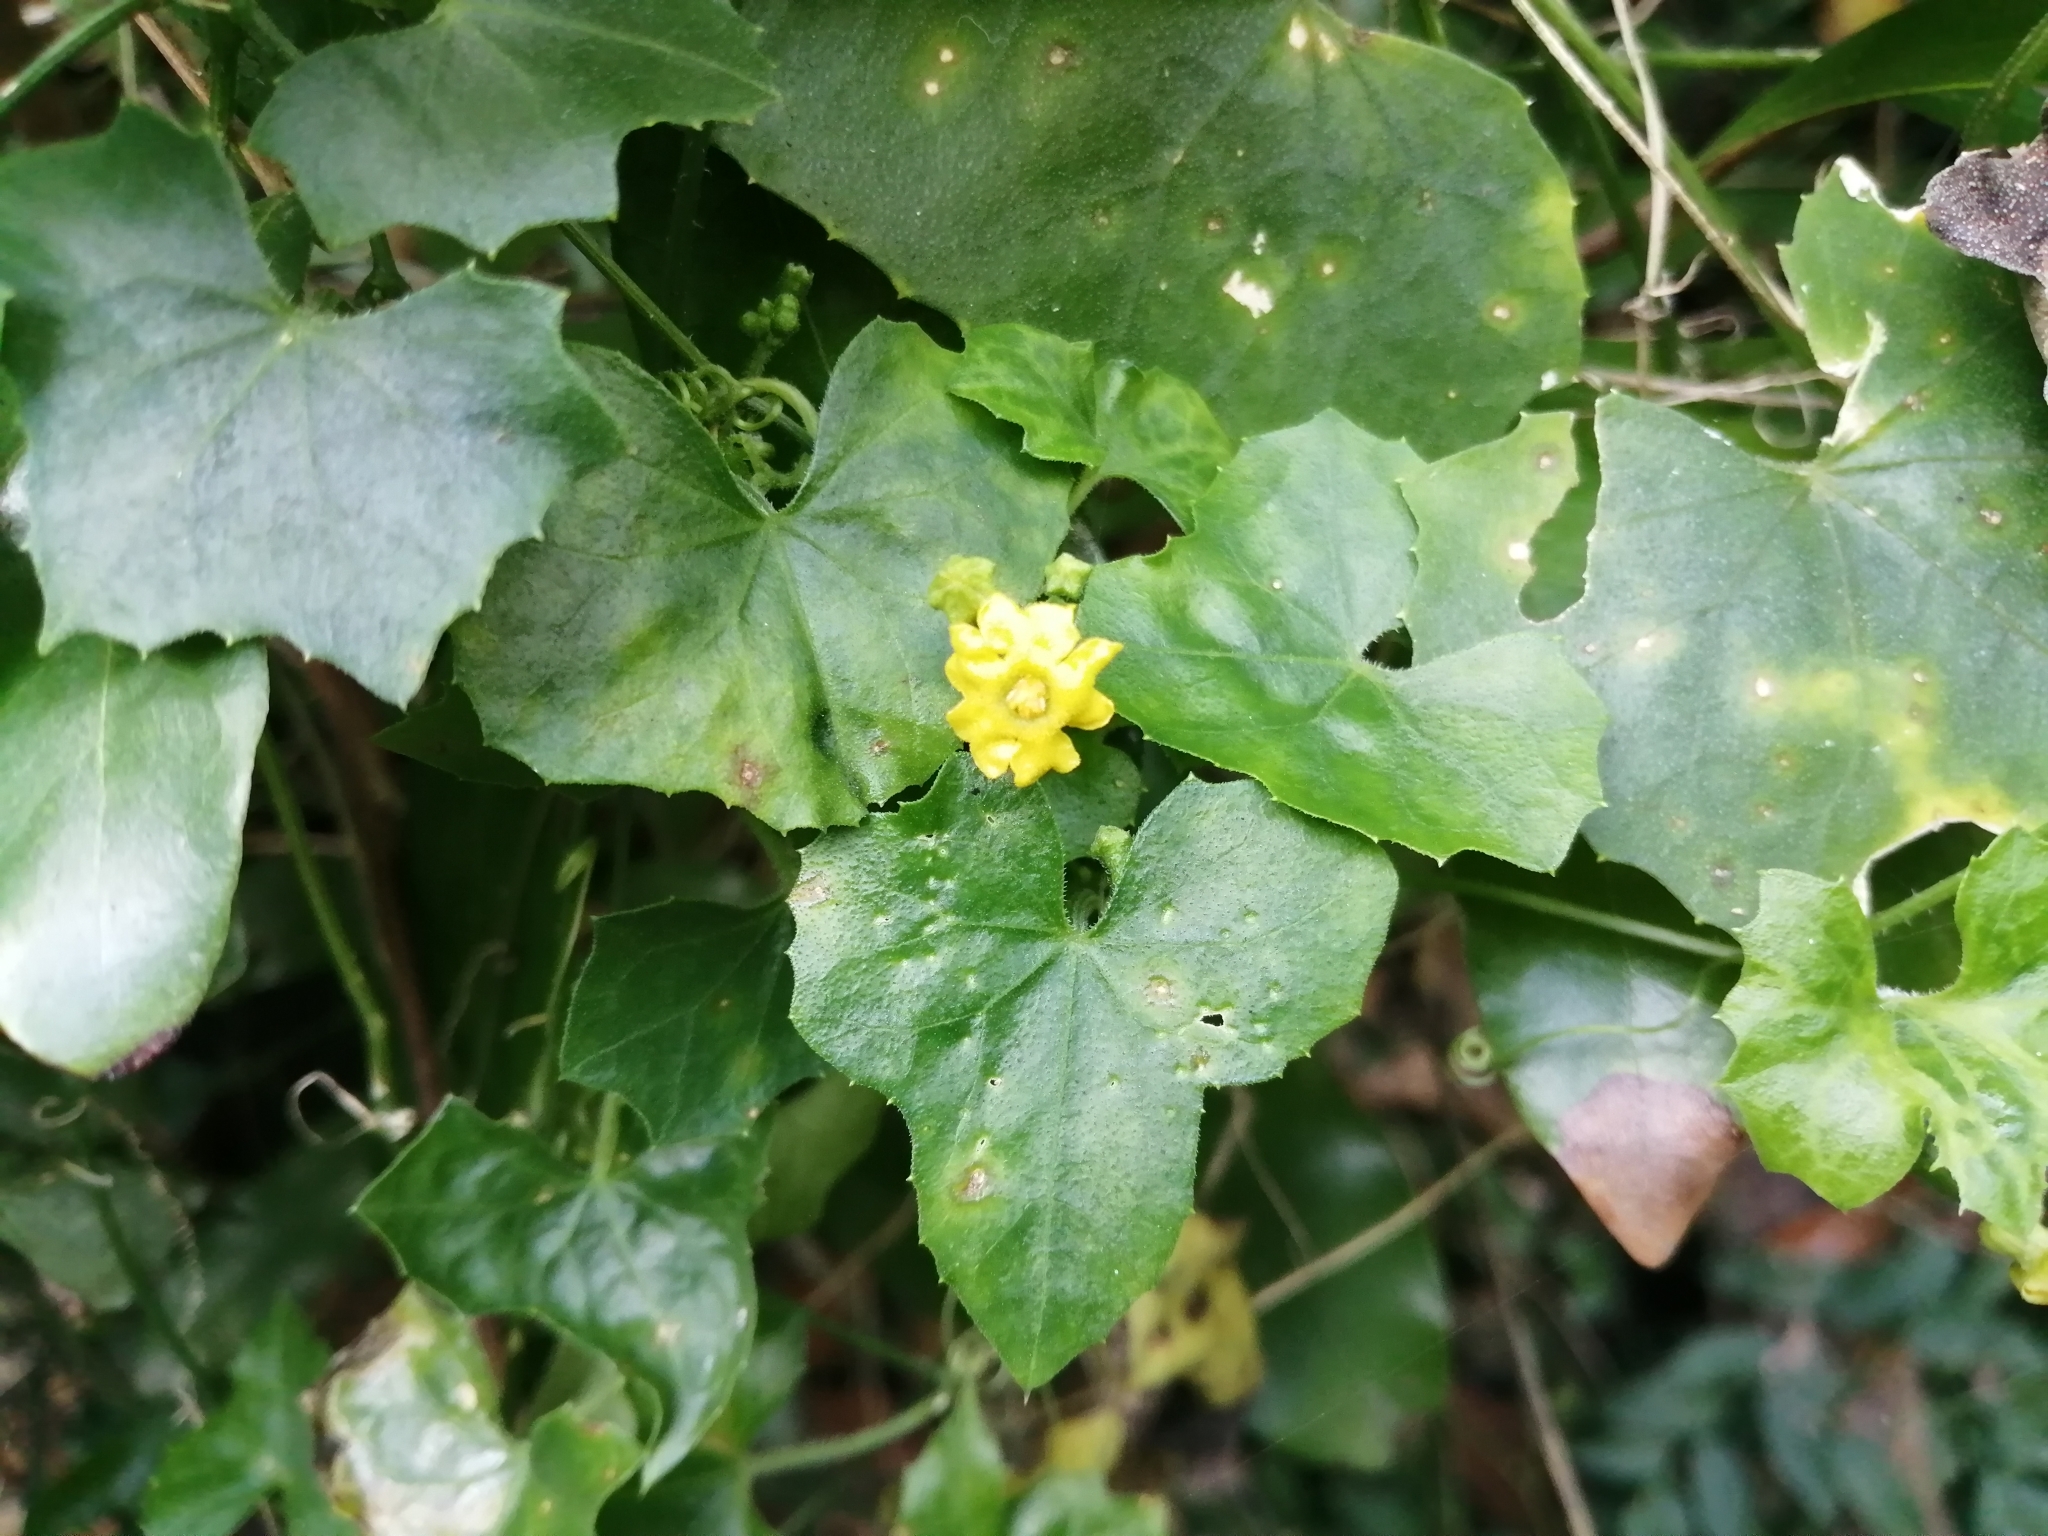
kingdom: Plantae
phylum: Tracheophyta
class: Magnoliopsida
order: Cucurbitales
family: Cucurbitaceae
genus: Melothria
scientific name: Melothria pendula
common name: Creeping-cucumber
